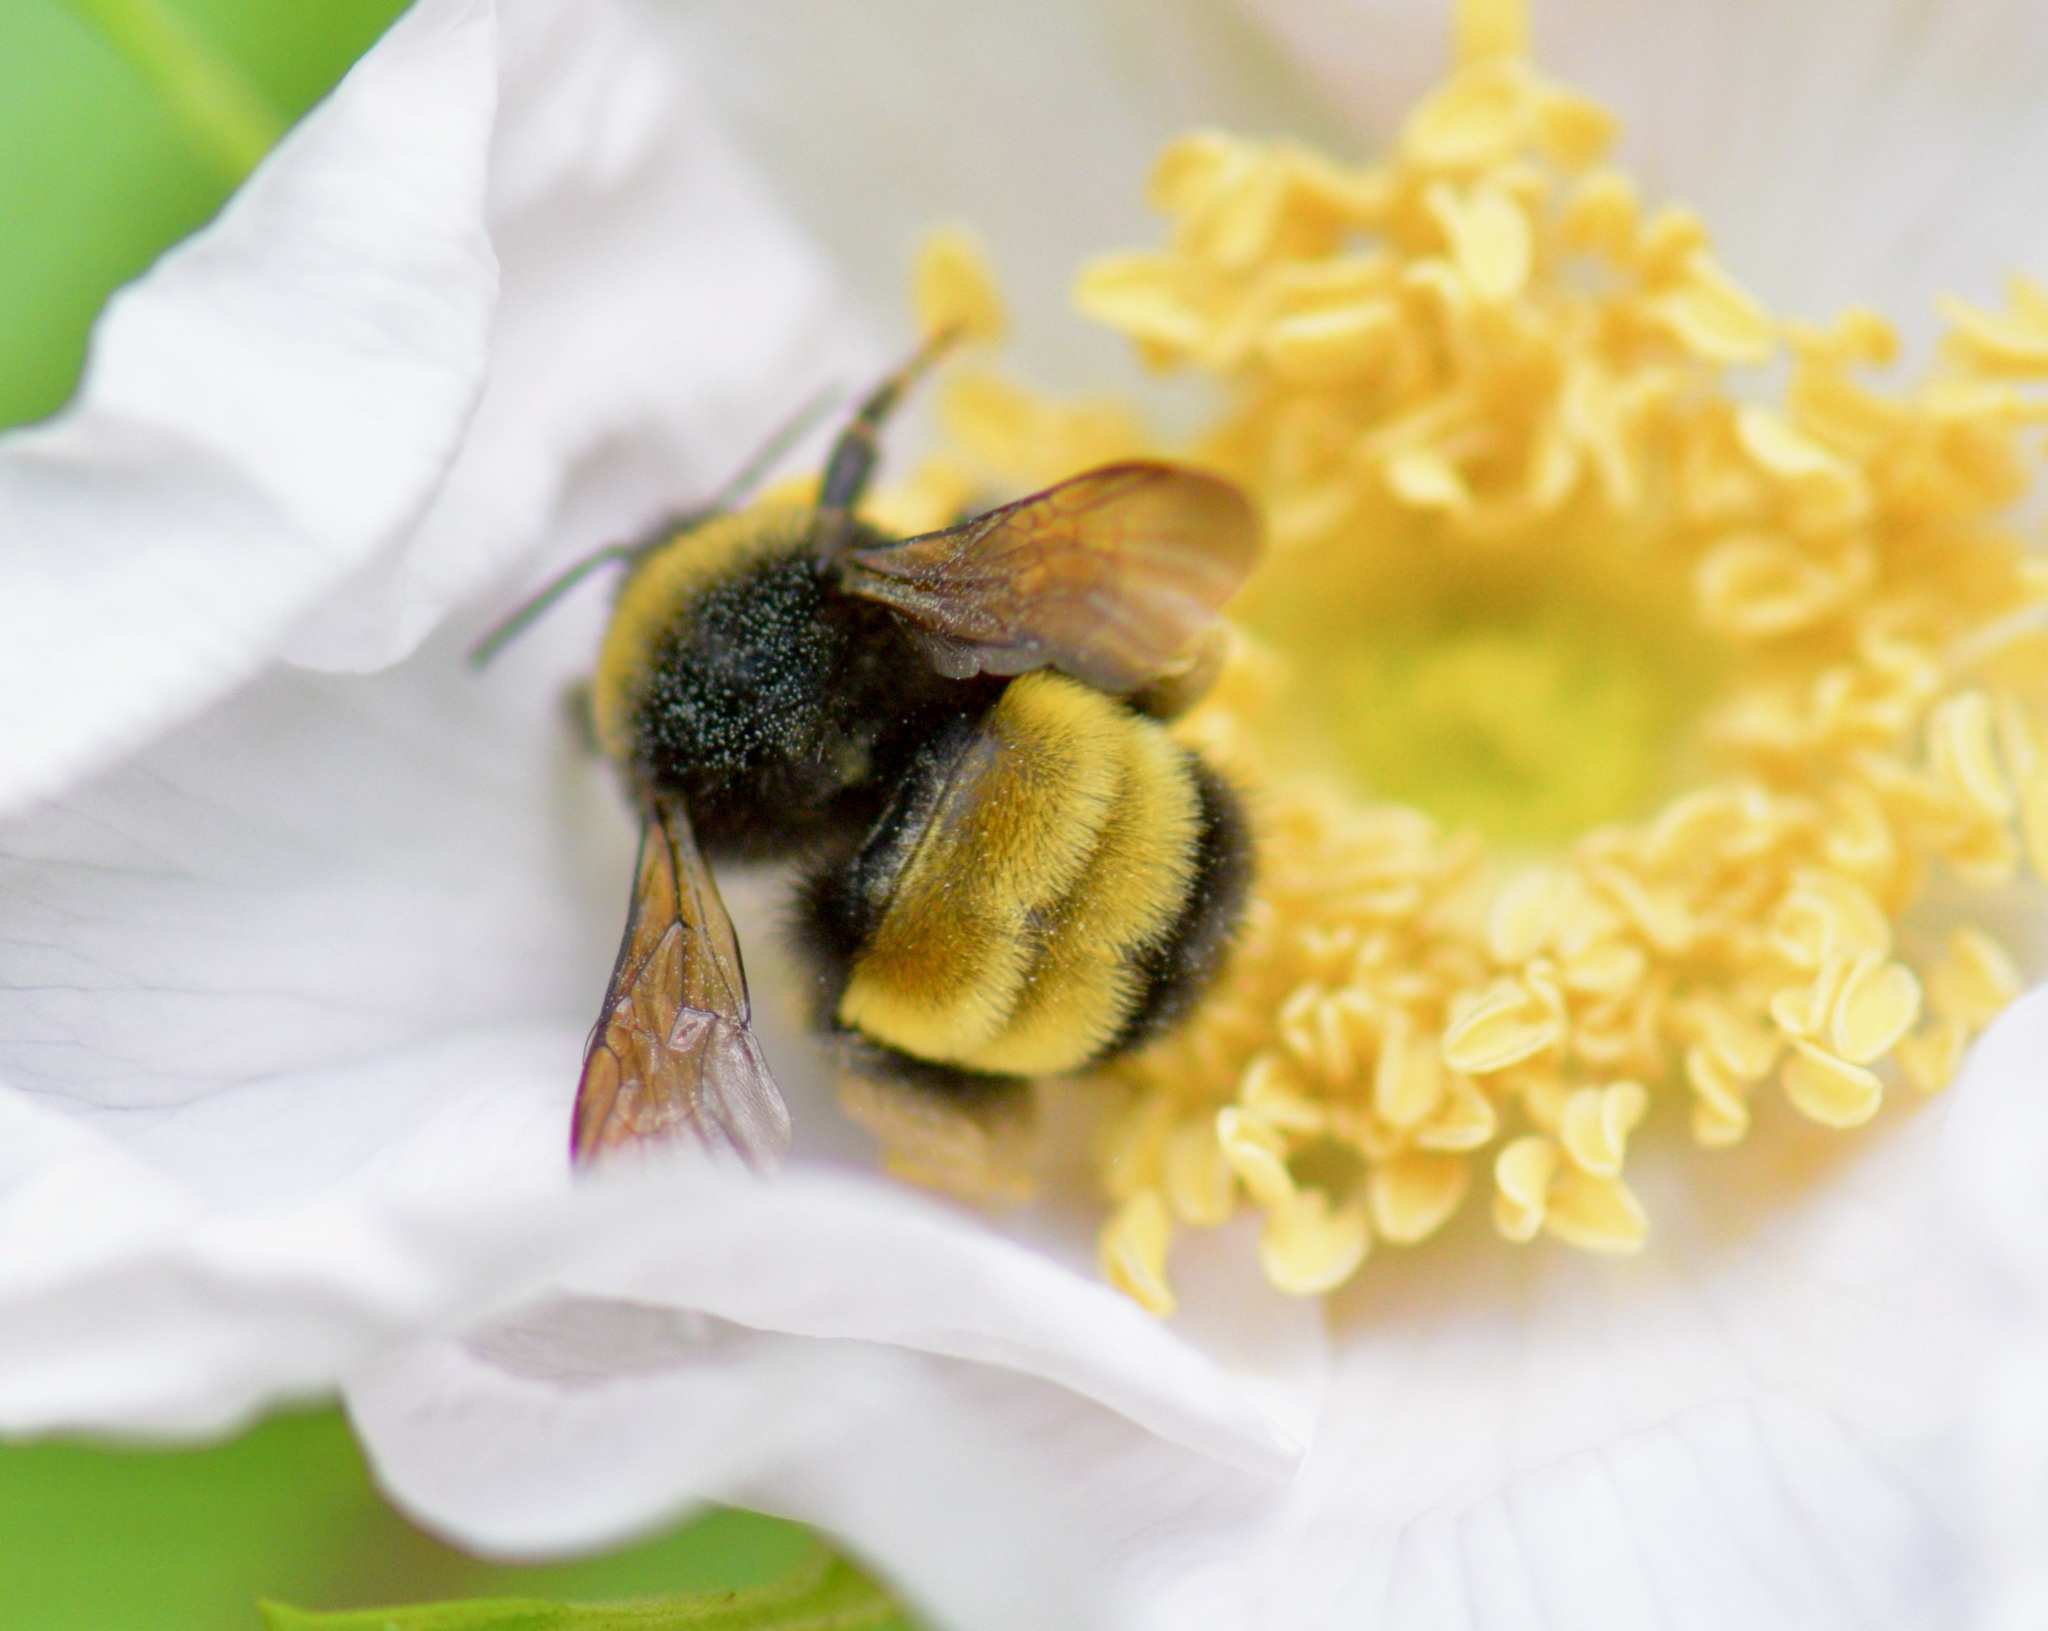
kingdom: Animalia
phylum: Arthropoda
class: Insecta
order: Hymenoptera
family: Apidae
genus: Bombus
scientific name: Bombus terricola
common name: Yellow-banded bumble bee
